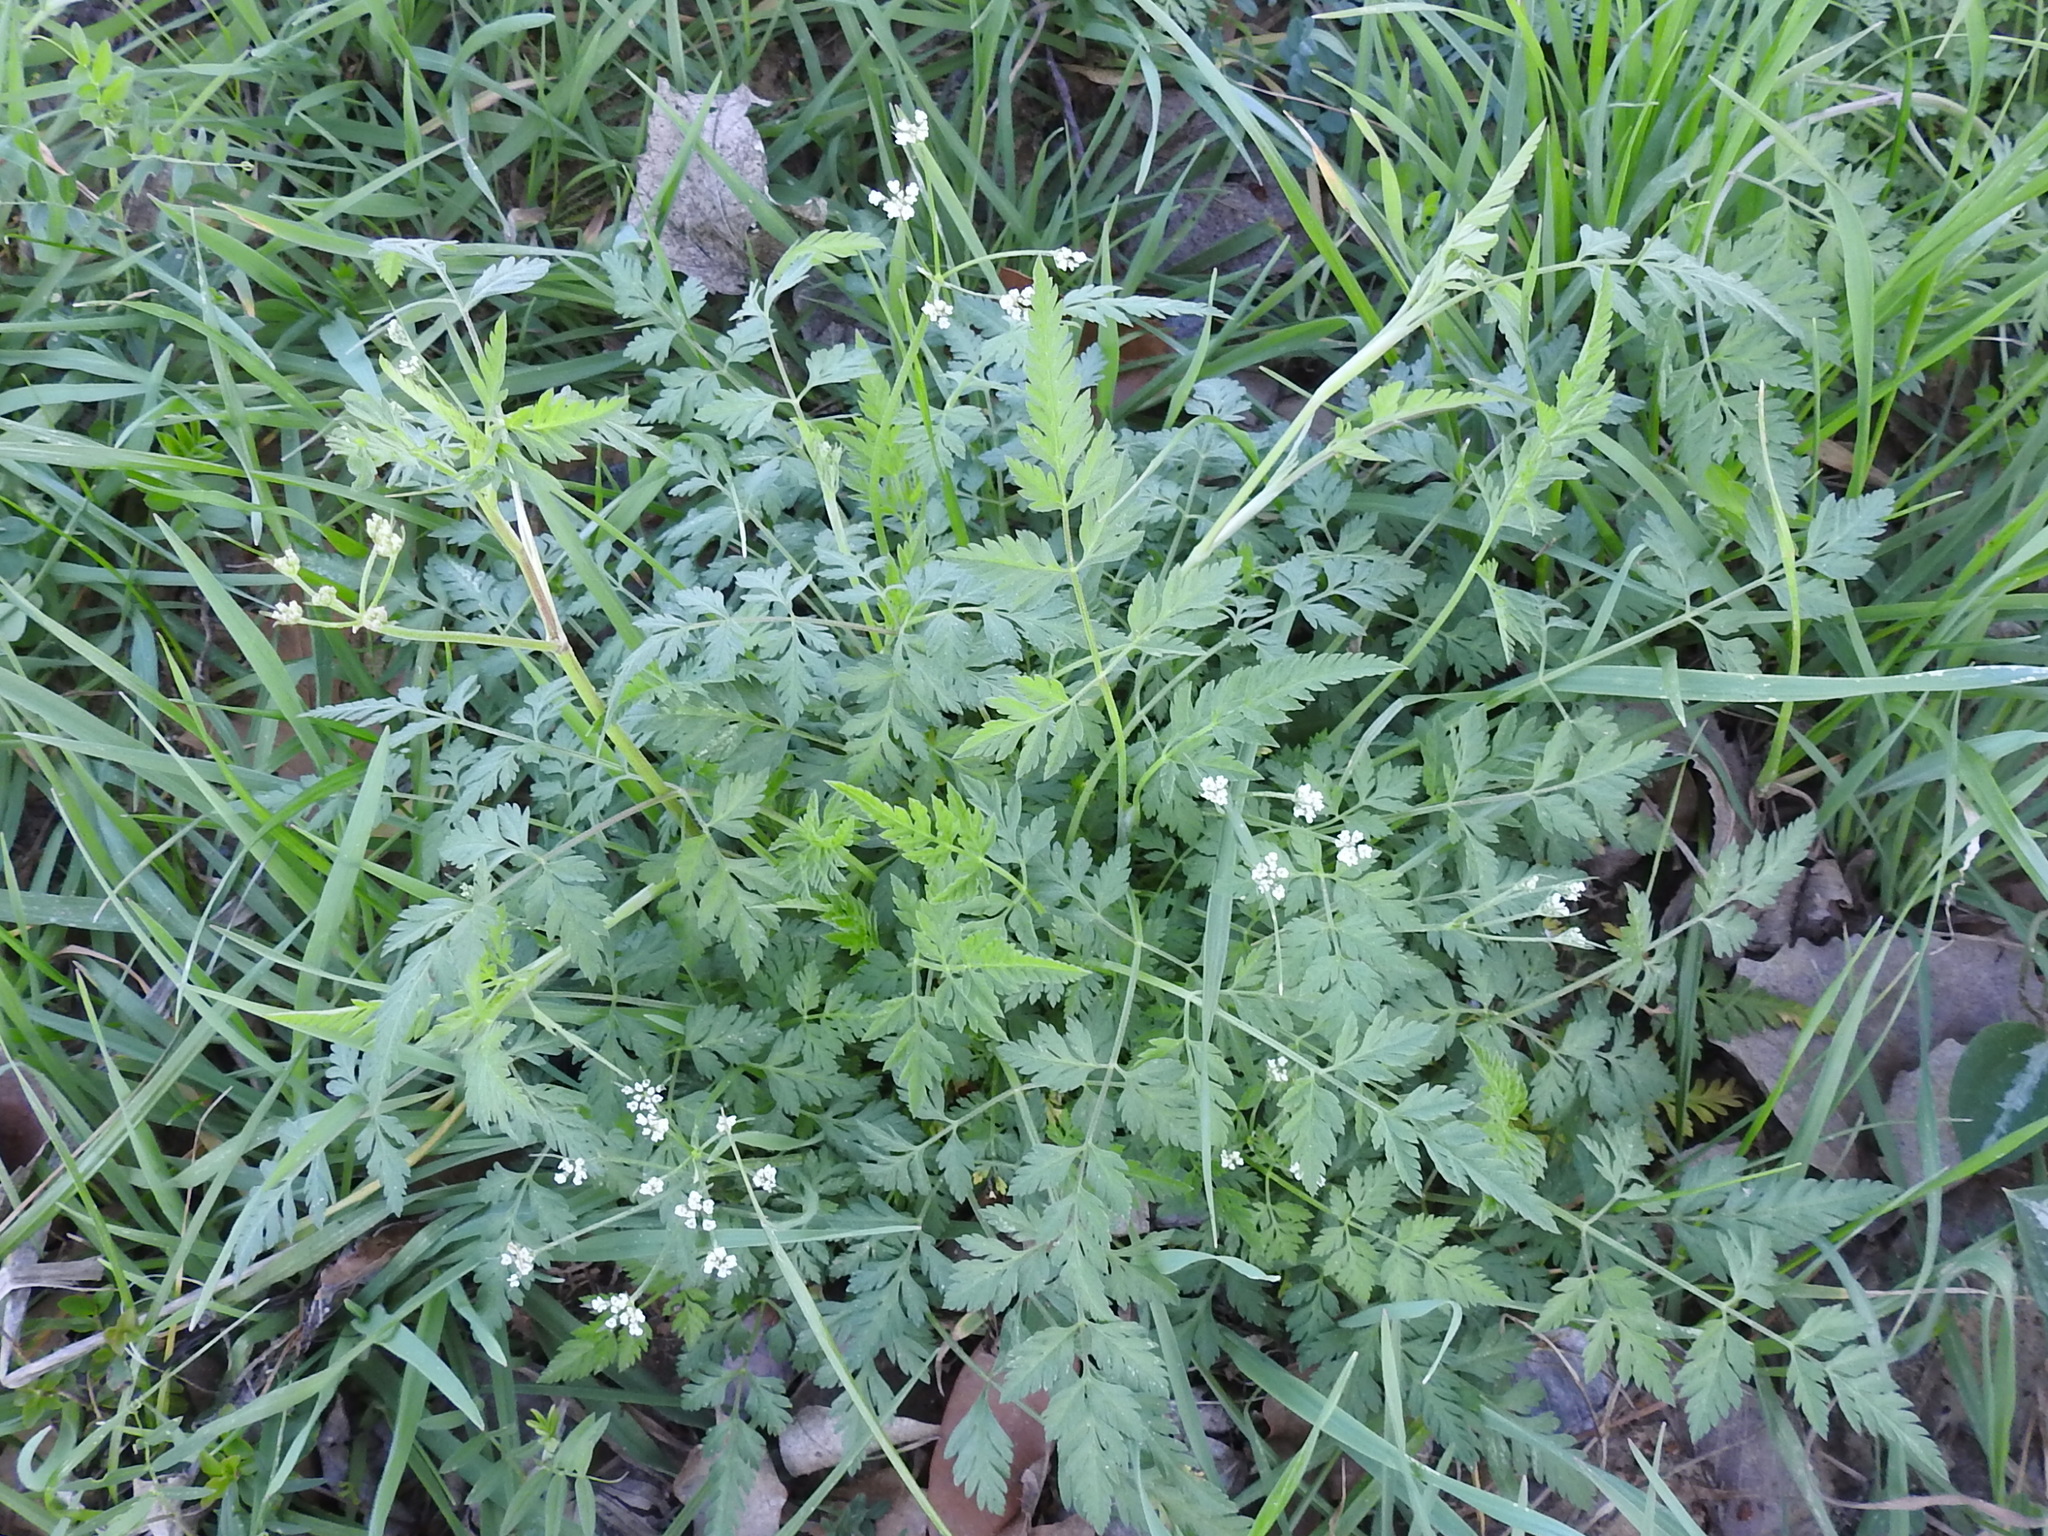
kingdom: Plantae
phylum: Tracheophyta
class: Magnoliopsida
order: Apiales
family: Apiaceae
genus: Torilis
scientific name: Torilis arvensis
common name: Spreading hedge-parsley
